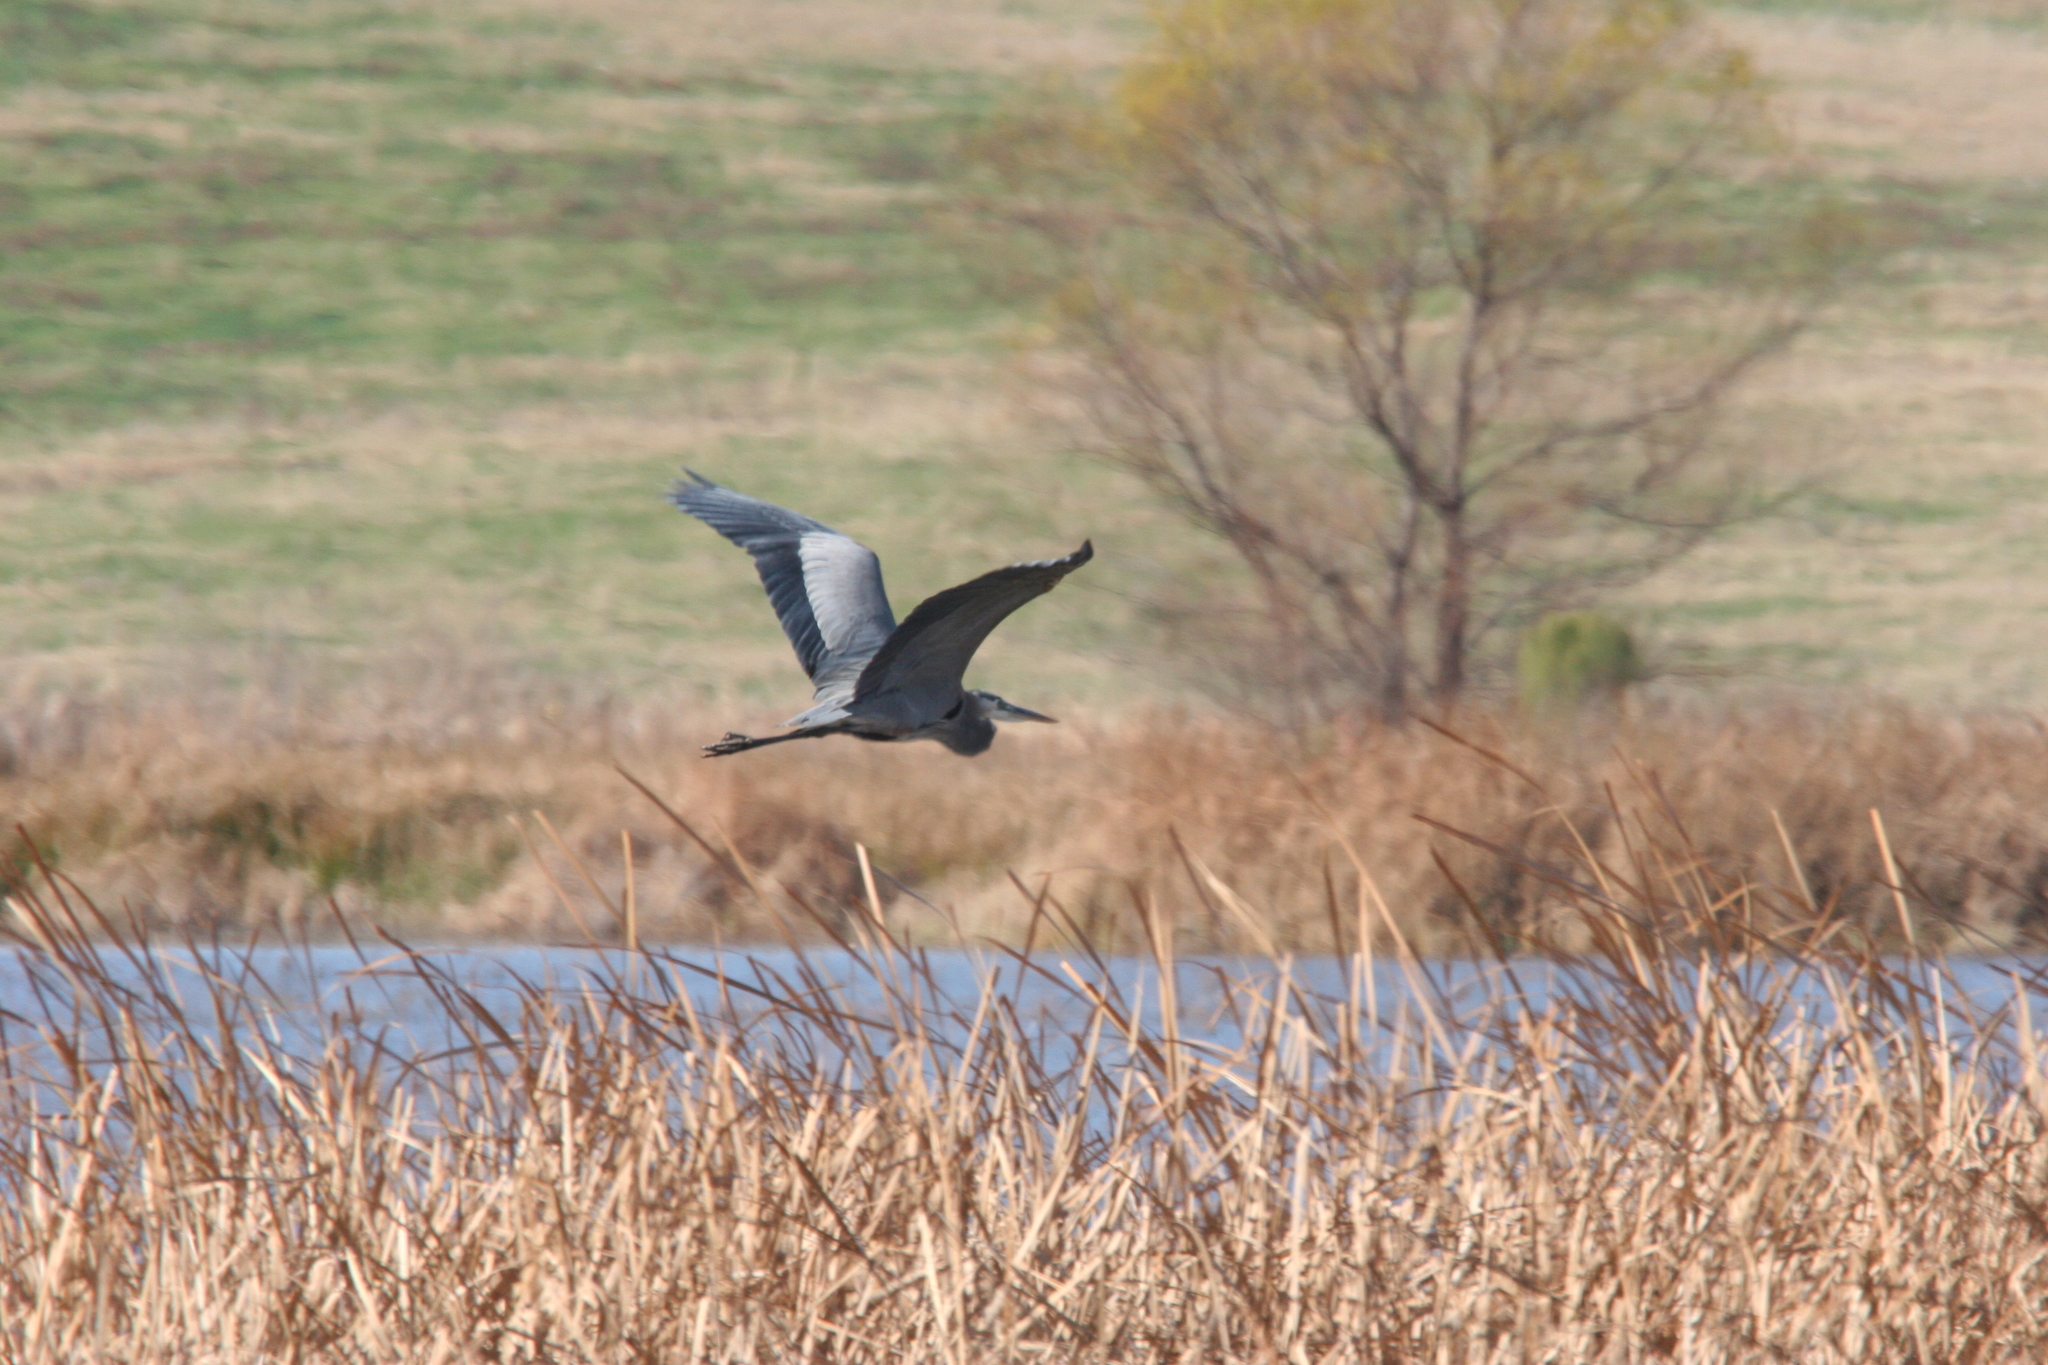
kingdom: Animalia
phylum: Chordata
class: Aves
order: Pelecaniformes
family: Ardeidae
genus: Ardea
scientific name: Ardea herodias
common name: Great blue heron
